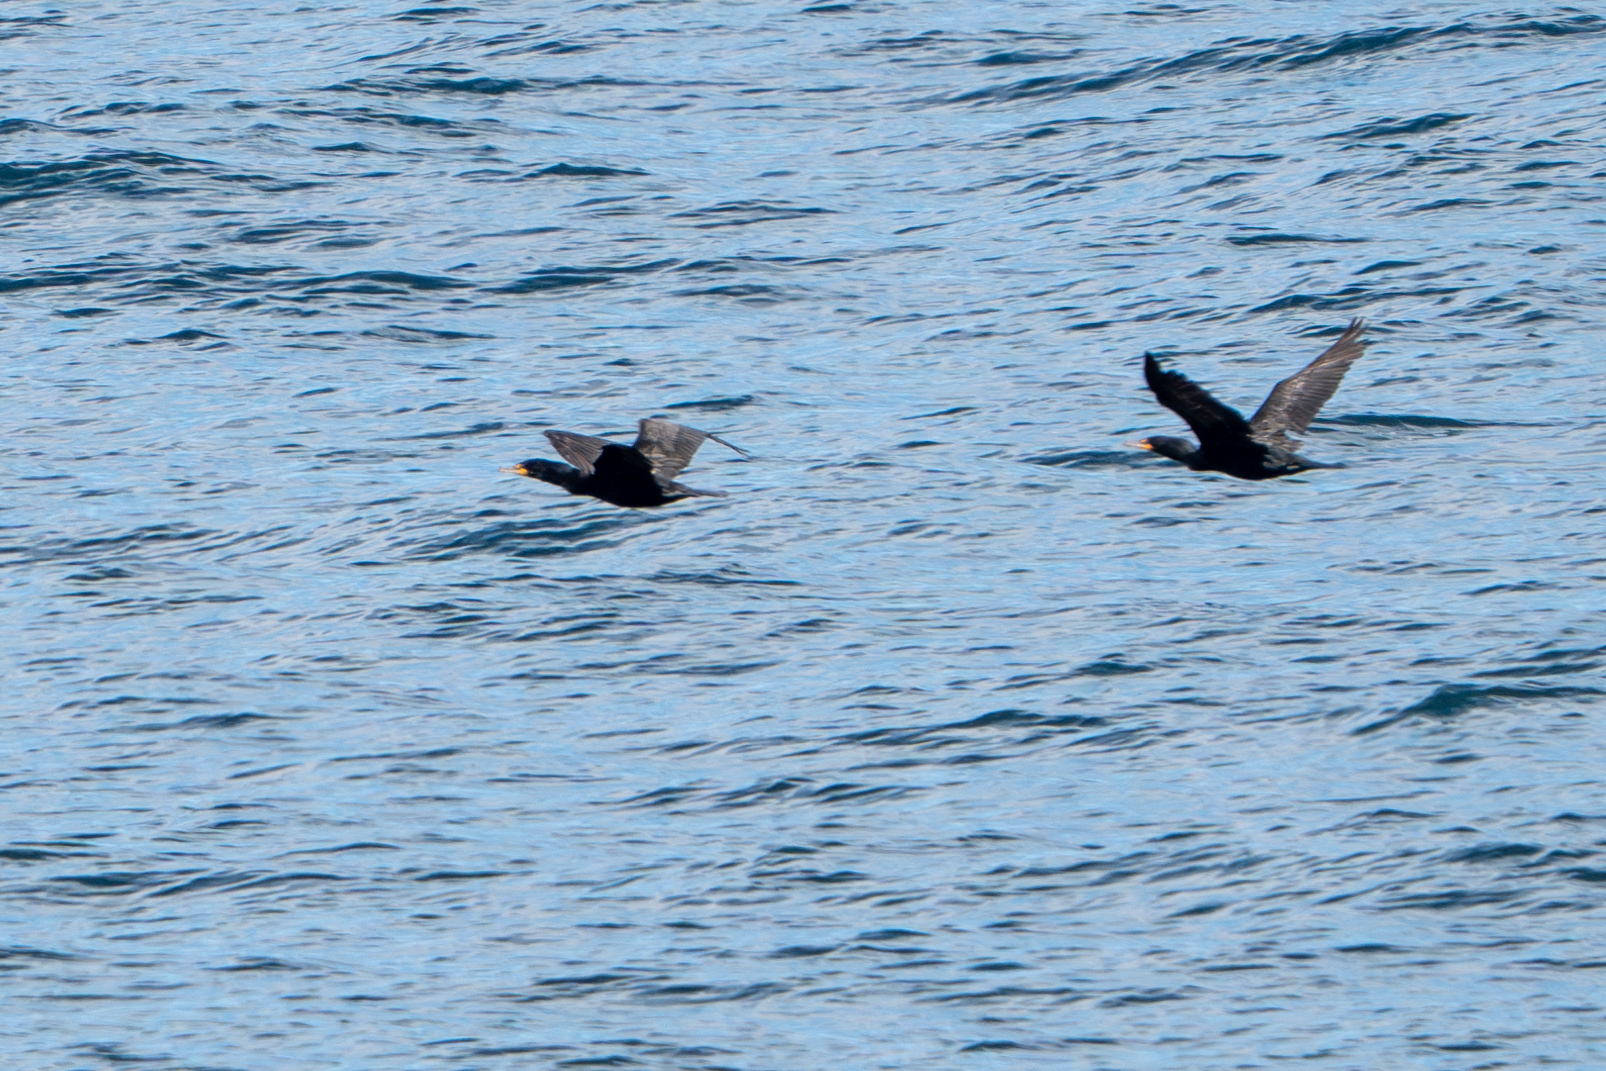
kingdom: Animalia
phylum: Chordata
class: Aves
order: Suliformes
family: Phalacrocoracidae
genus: Phalacrocorax
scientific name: Phalacrocorax auritus
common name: Double-crested cormorant
